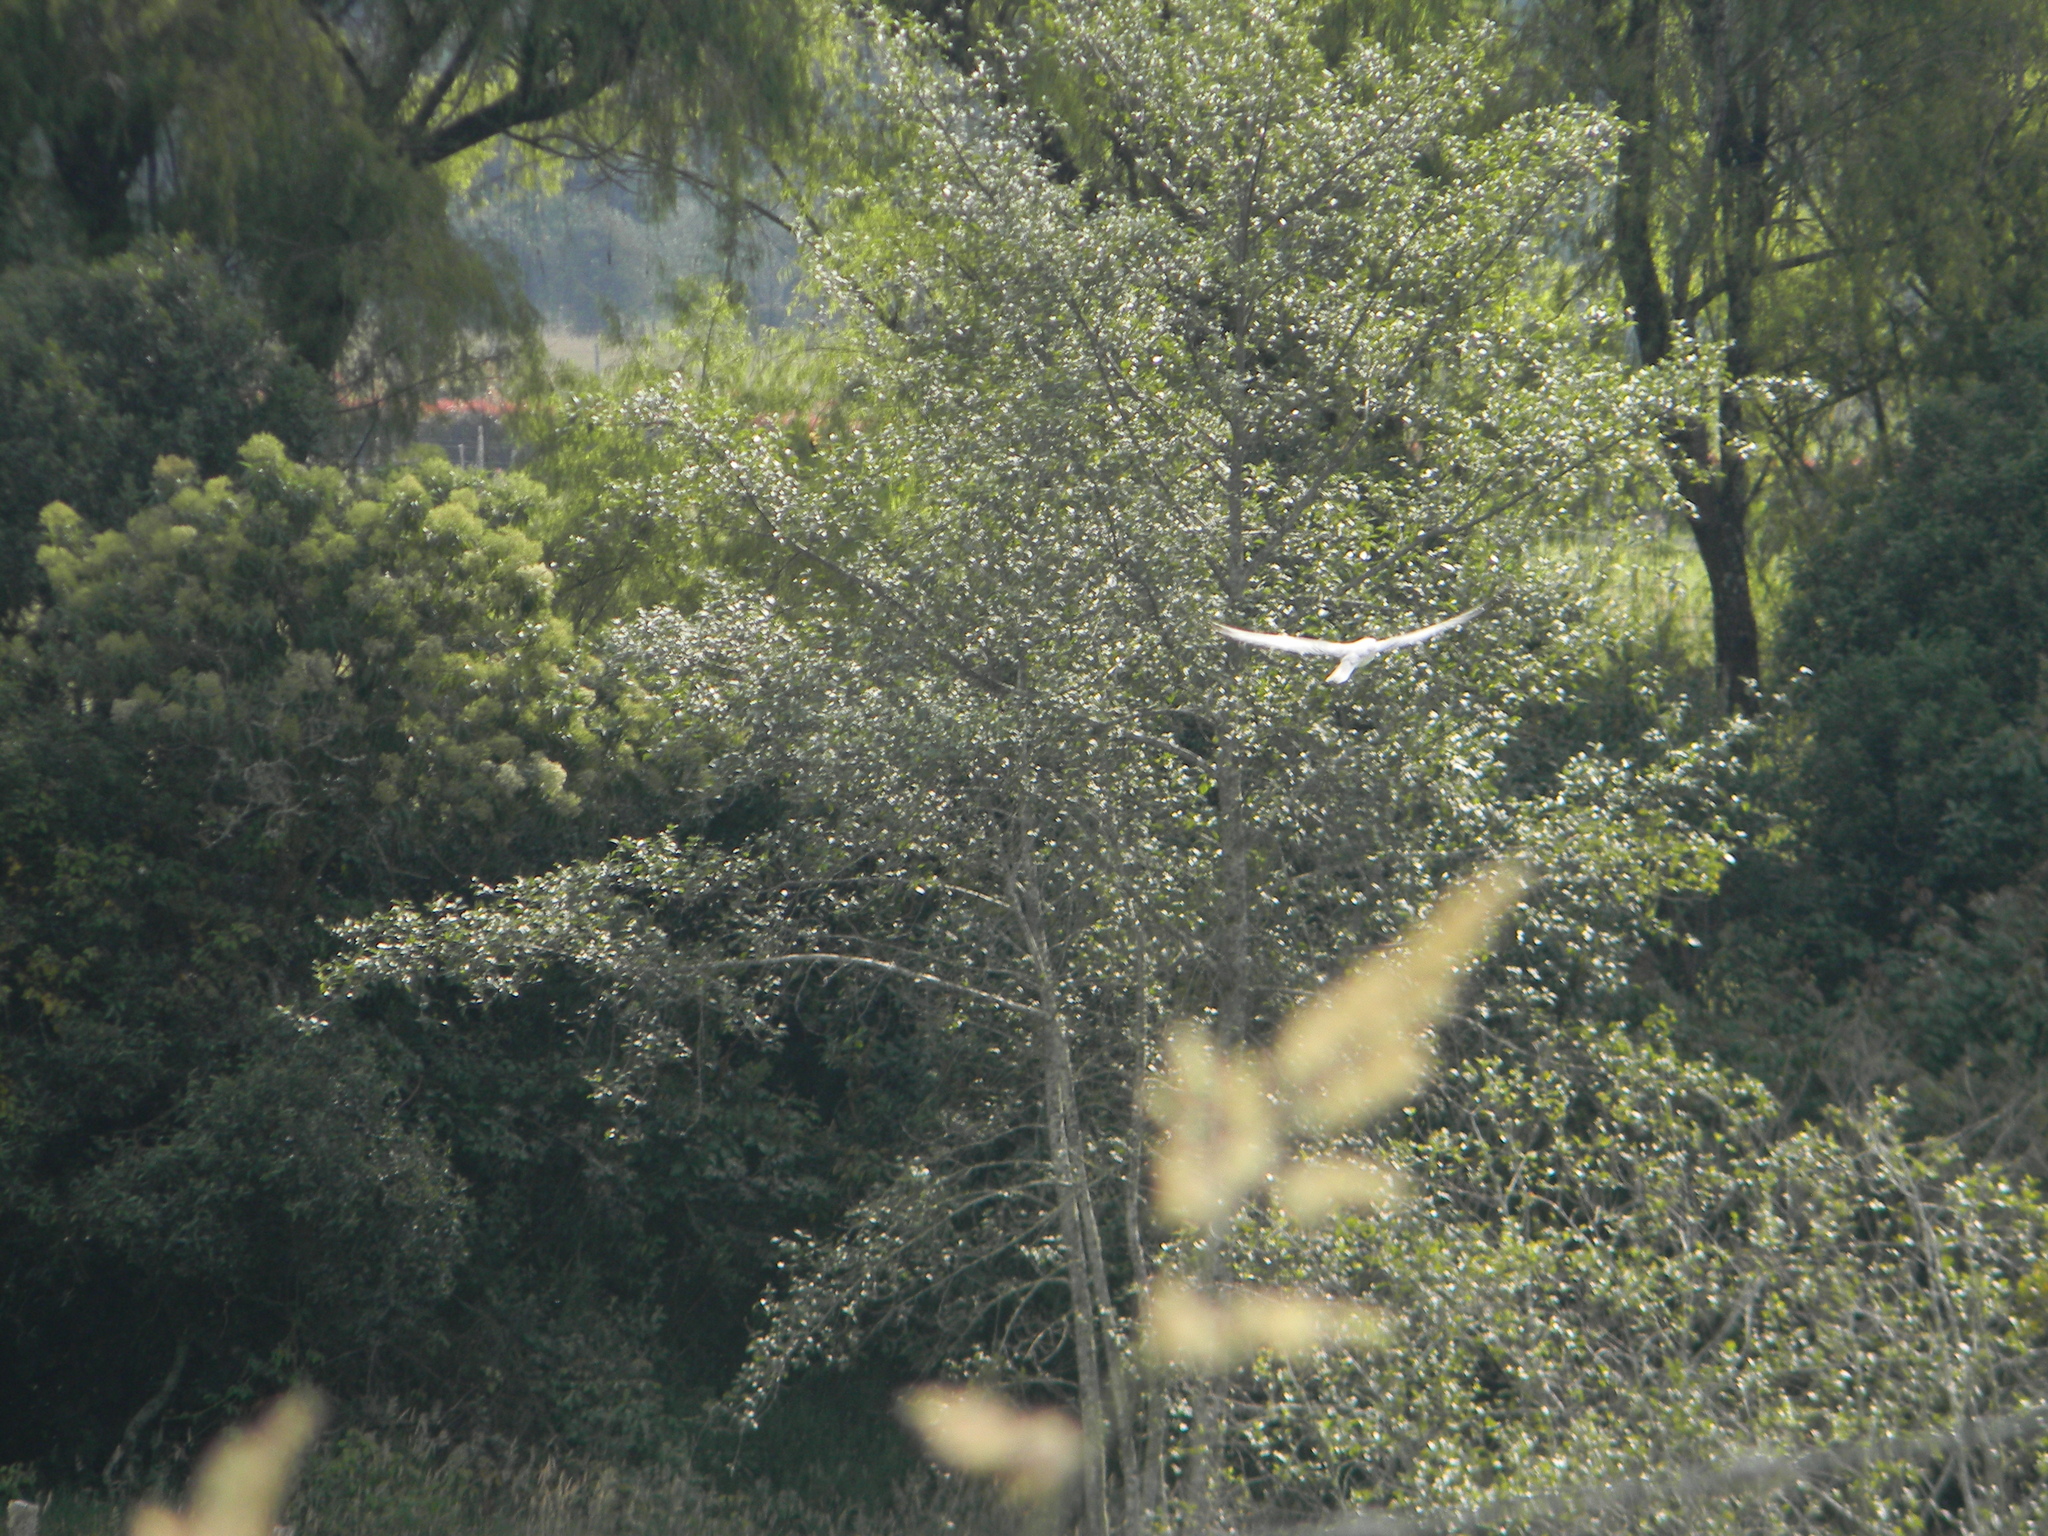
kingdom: Animalia
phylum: Chordata
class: Aves
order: Accipitriformes
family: Accipitridae
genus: Elanus
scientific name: Elanus leucurus
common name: White-tailed kite
